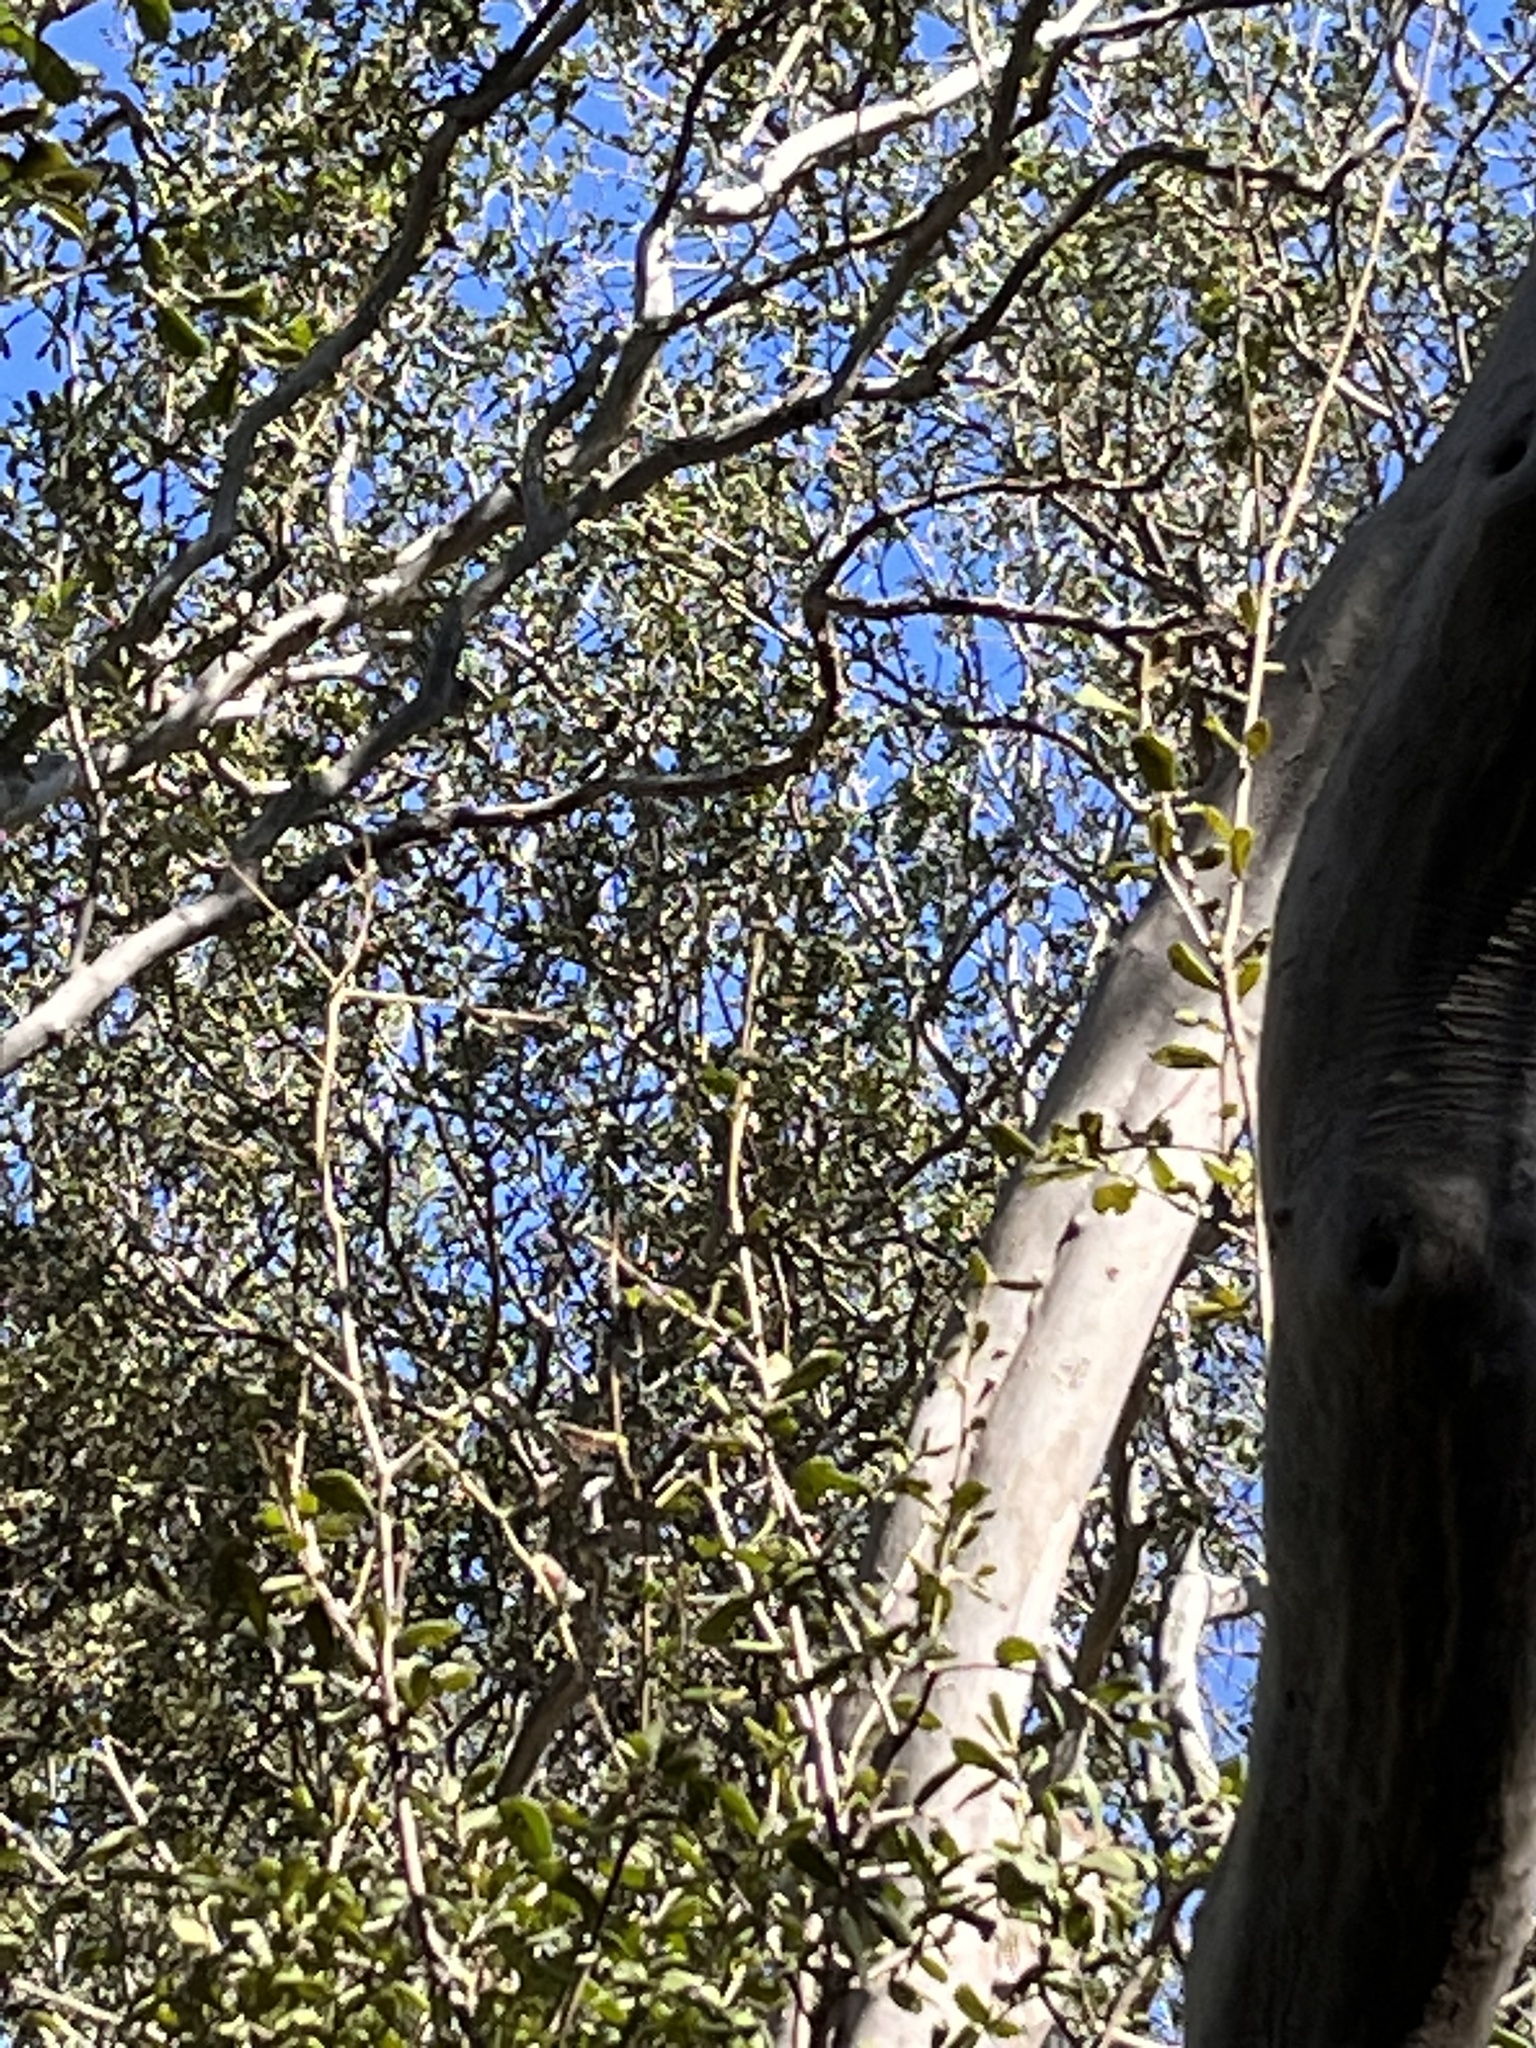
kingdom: Plantae
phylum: Tracheophyta
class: Magnoliopsida
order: Ericales
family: Ebenaceae
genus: Diospyros
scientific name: Diospyros texana
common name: Texas persimmon
